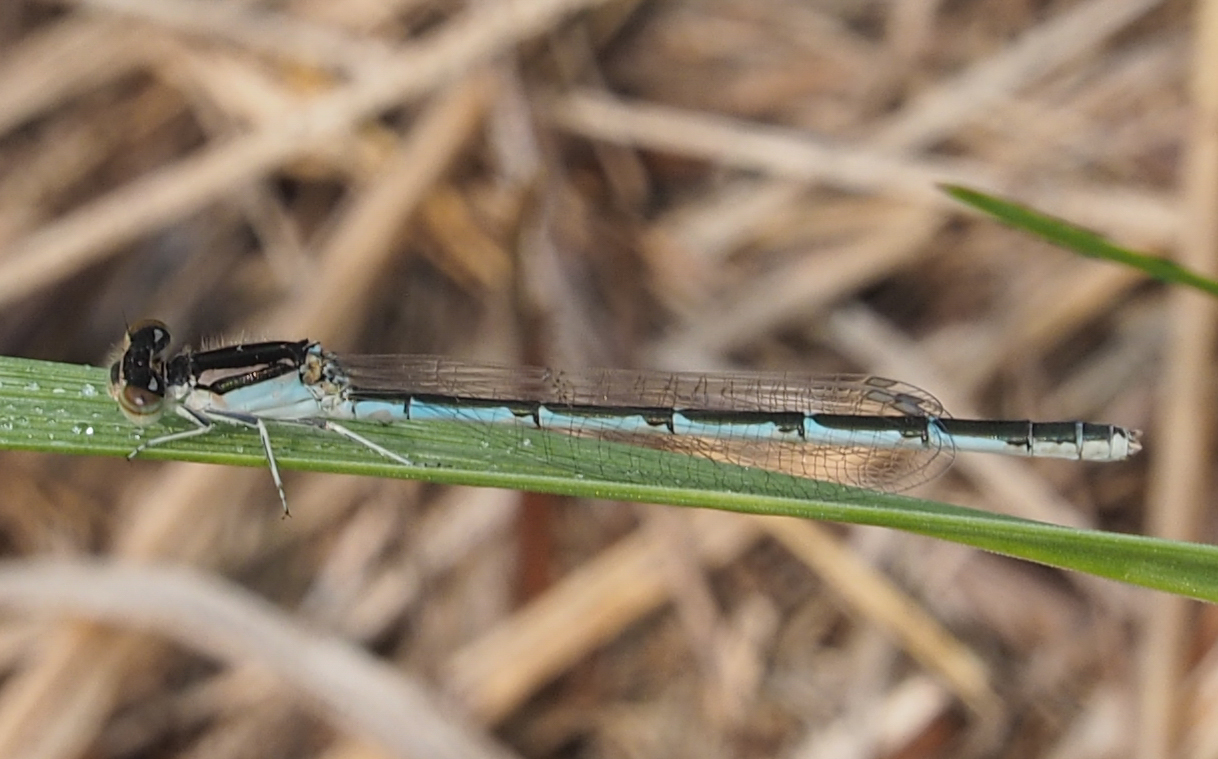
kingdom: Animalia
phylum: Arthropoda
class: Insecta
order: Odonata
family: Coenagrionidae
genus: Ischnura
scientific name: Ischnura posita
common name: Fragile forktail
